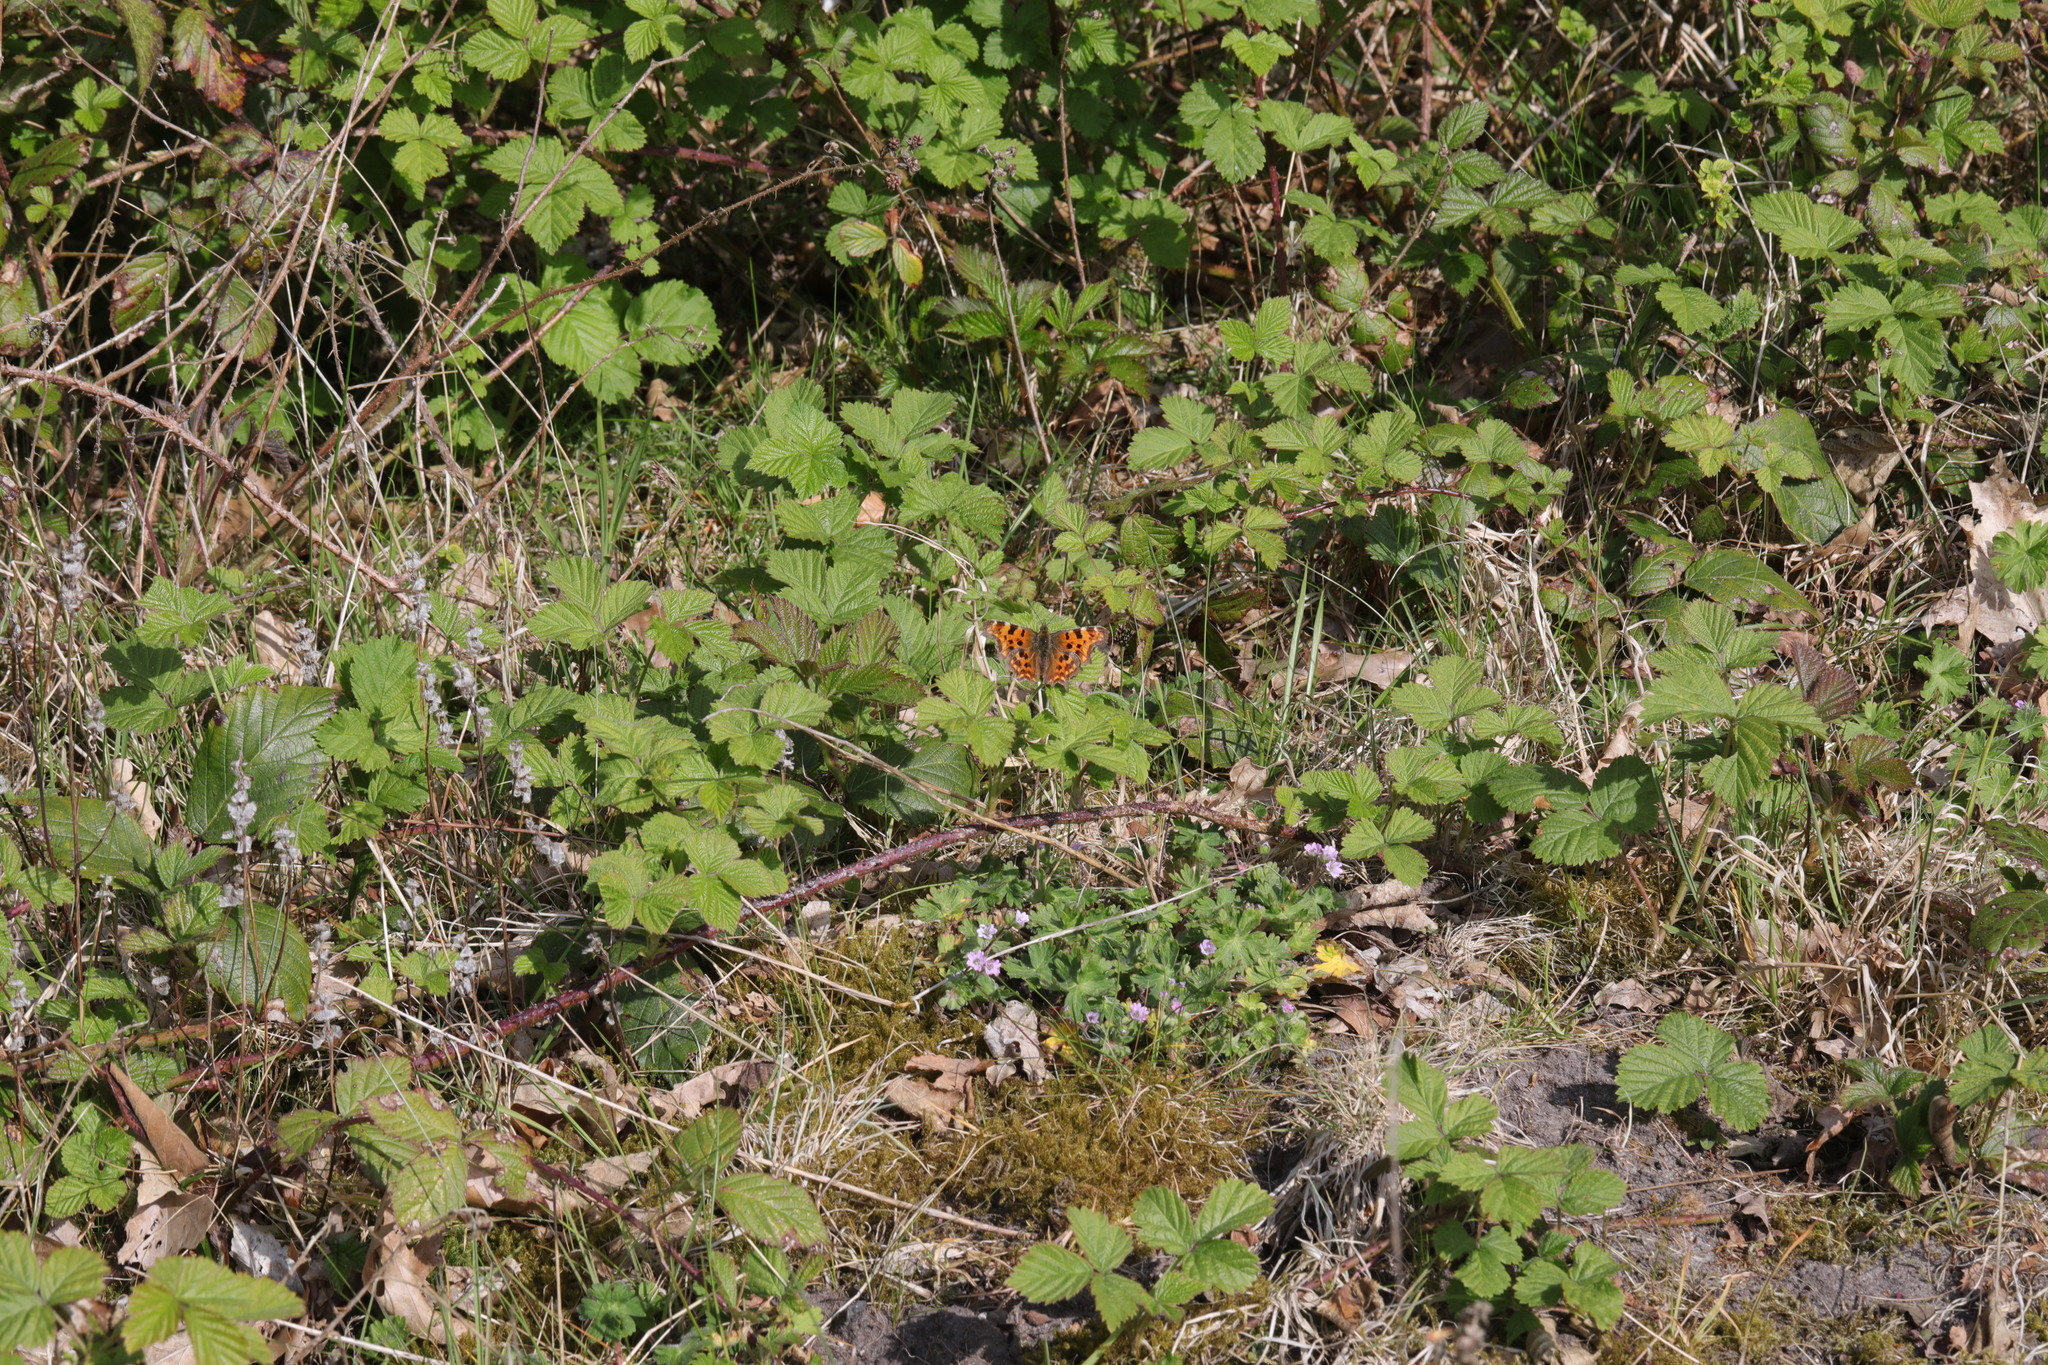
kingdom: Animalia
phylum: Arthropoda
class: Insecta
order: Lepidoptera
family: Nymphalidae
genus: Polygonia
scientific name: Polygonia c-album
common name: Comma
